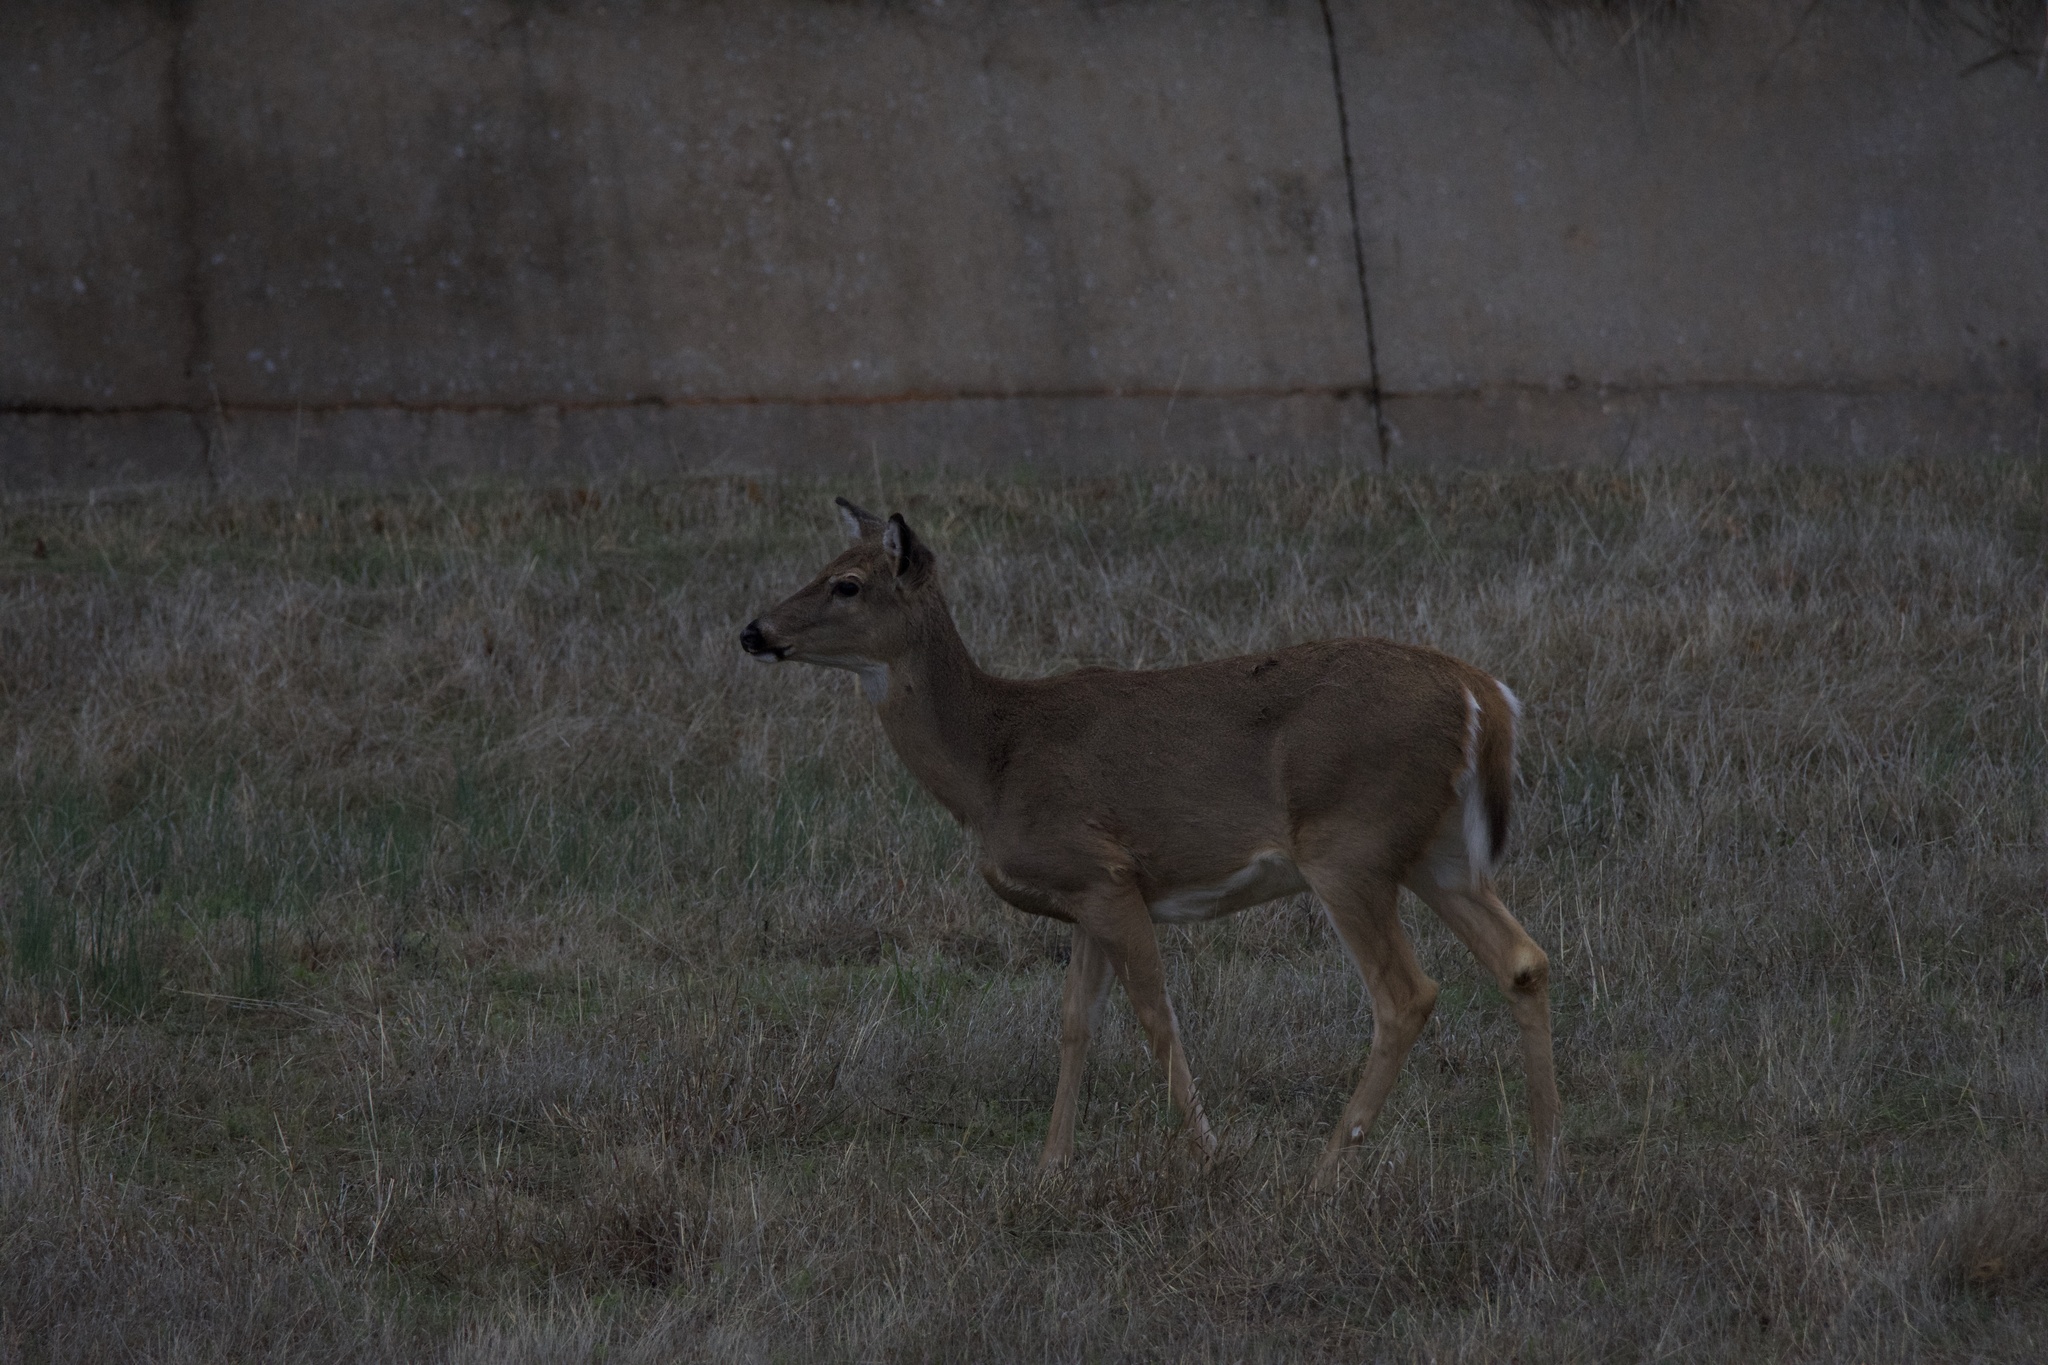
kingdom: Animalia
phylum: Chordata
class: Mammalia
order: Artiodactyla
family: Cervidae
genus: Odocoileus
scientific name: Odocoileus virginianus
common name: White-tailed deer
